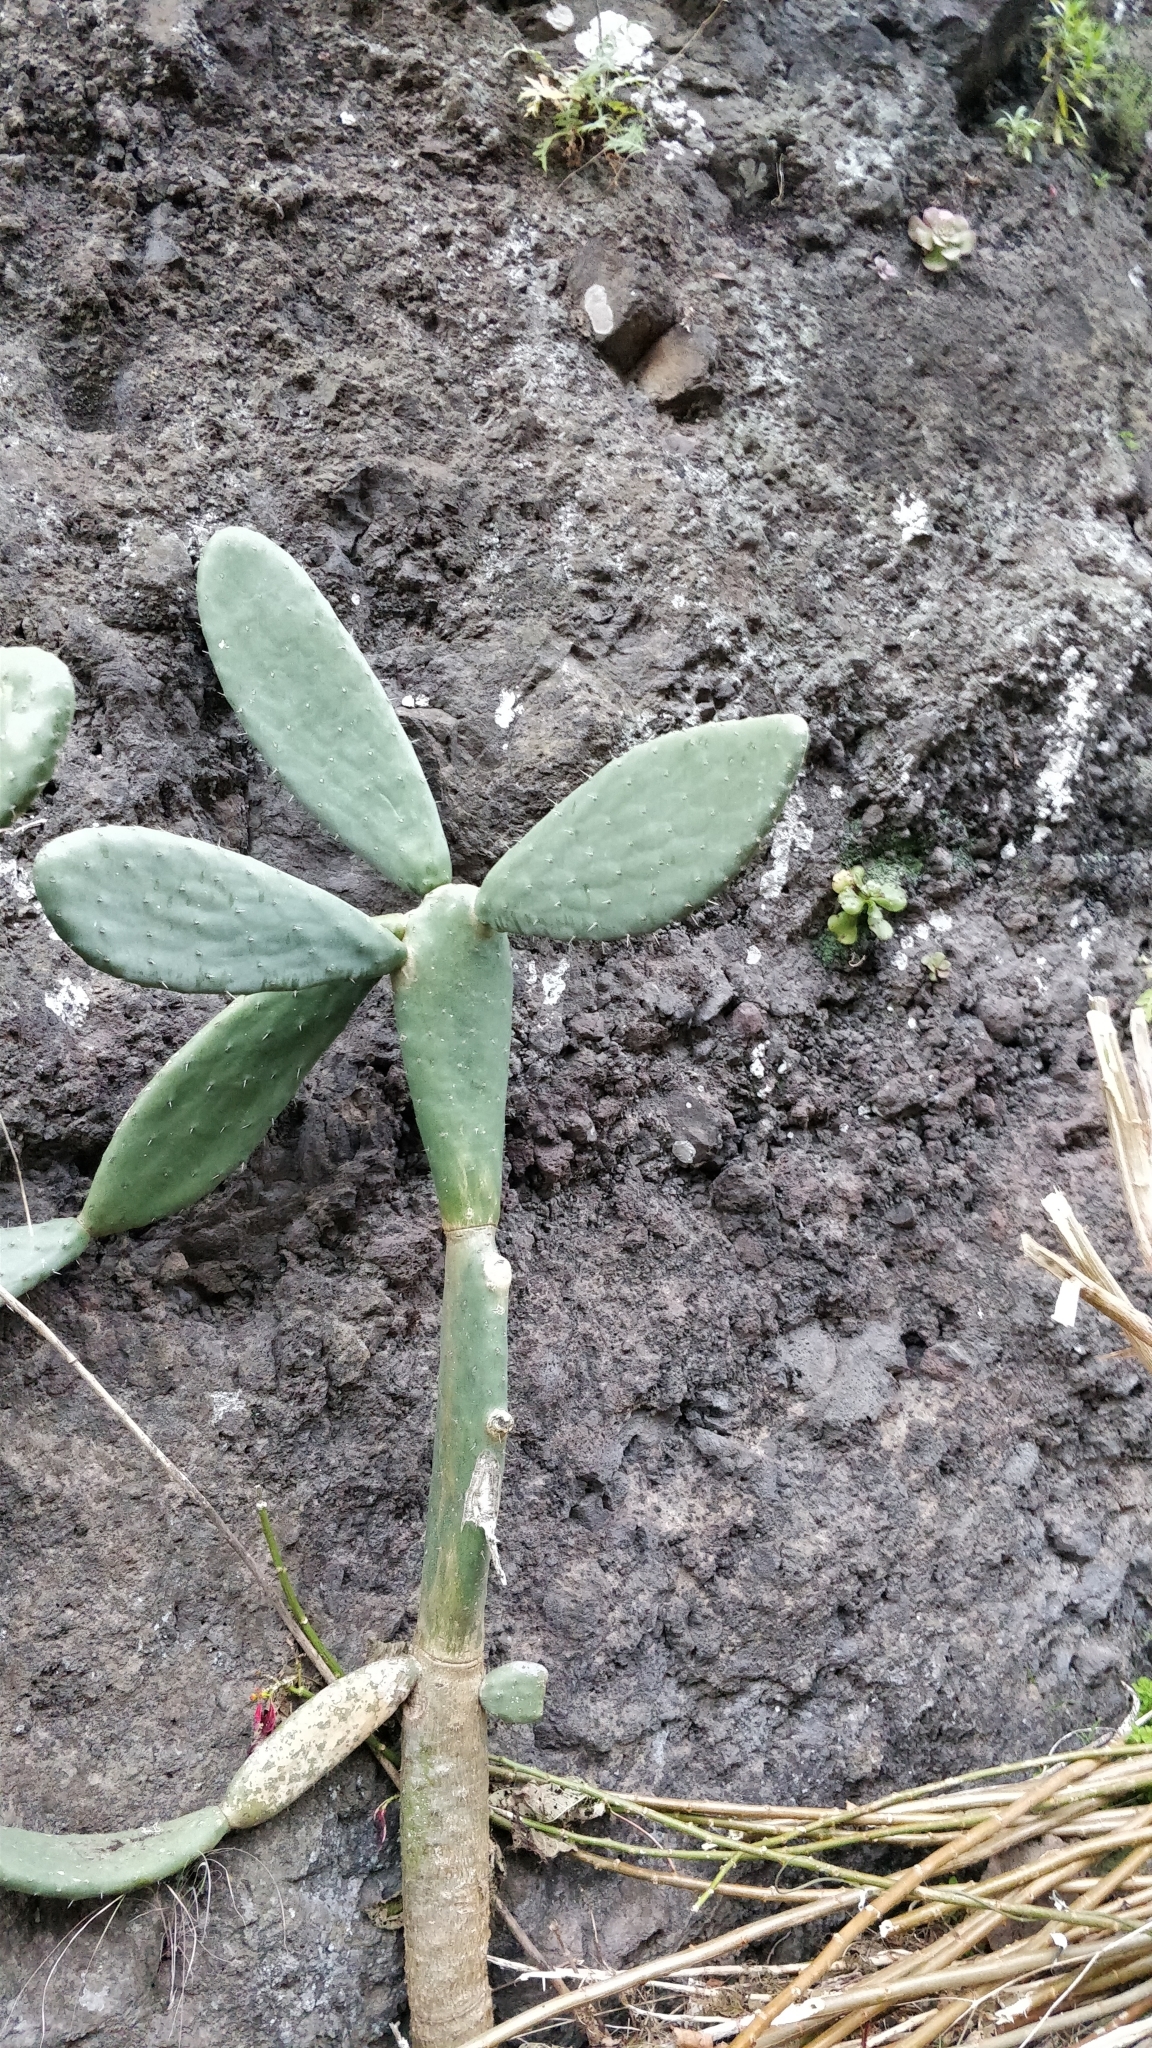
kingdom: Plantae
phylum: Tracheophyta
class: Magnoliopsida
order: Caryophyllales
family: Cactaceae
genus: Opuntia
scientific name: Opuntia ficus-indica
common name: Barbary fig
